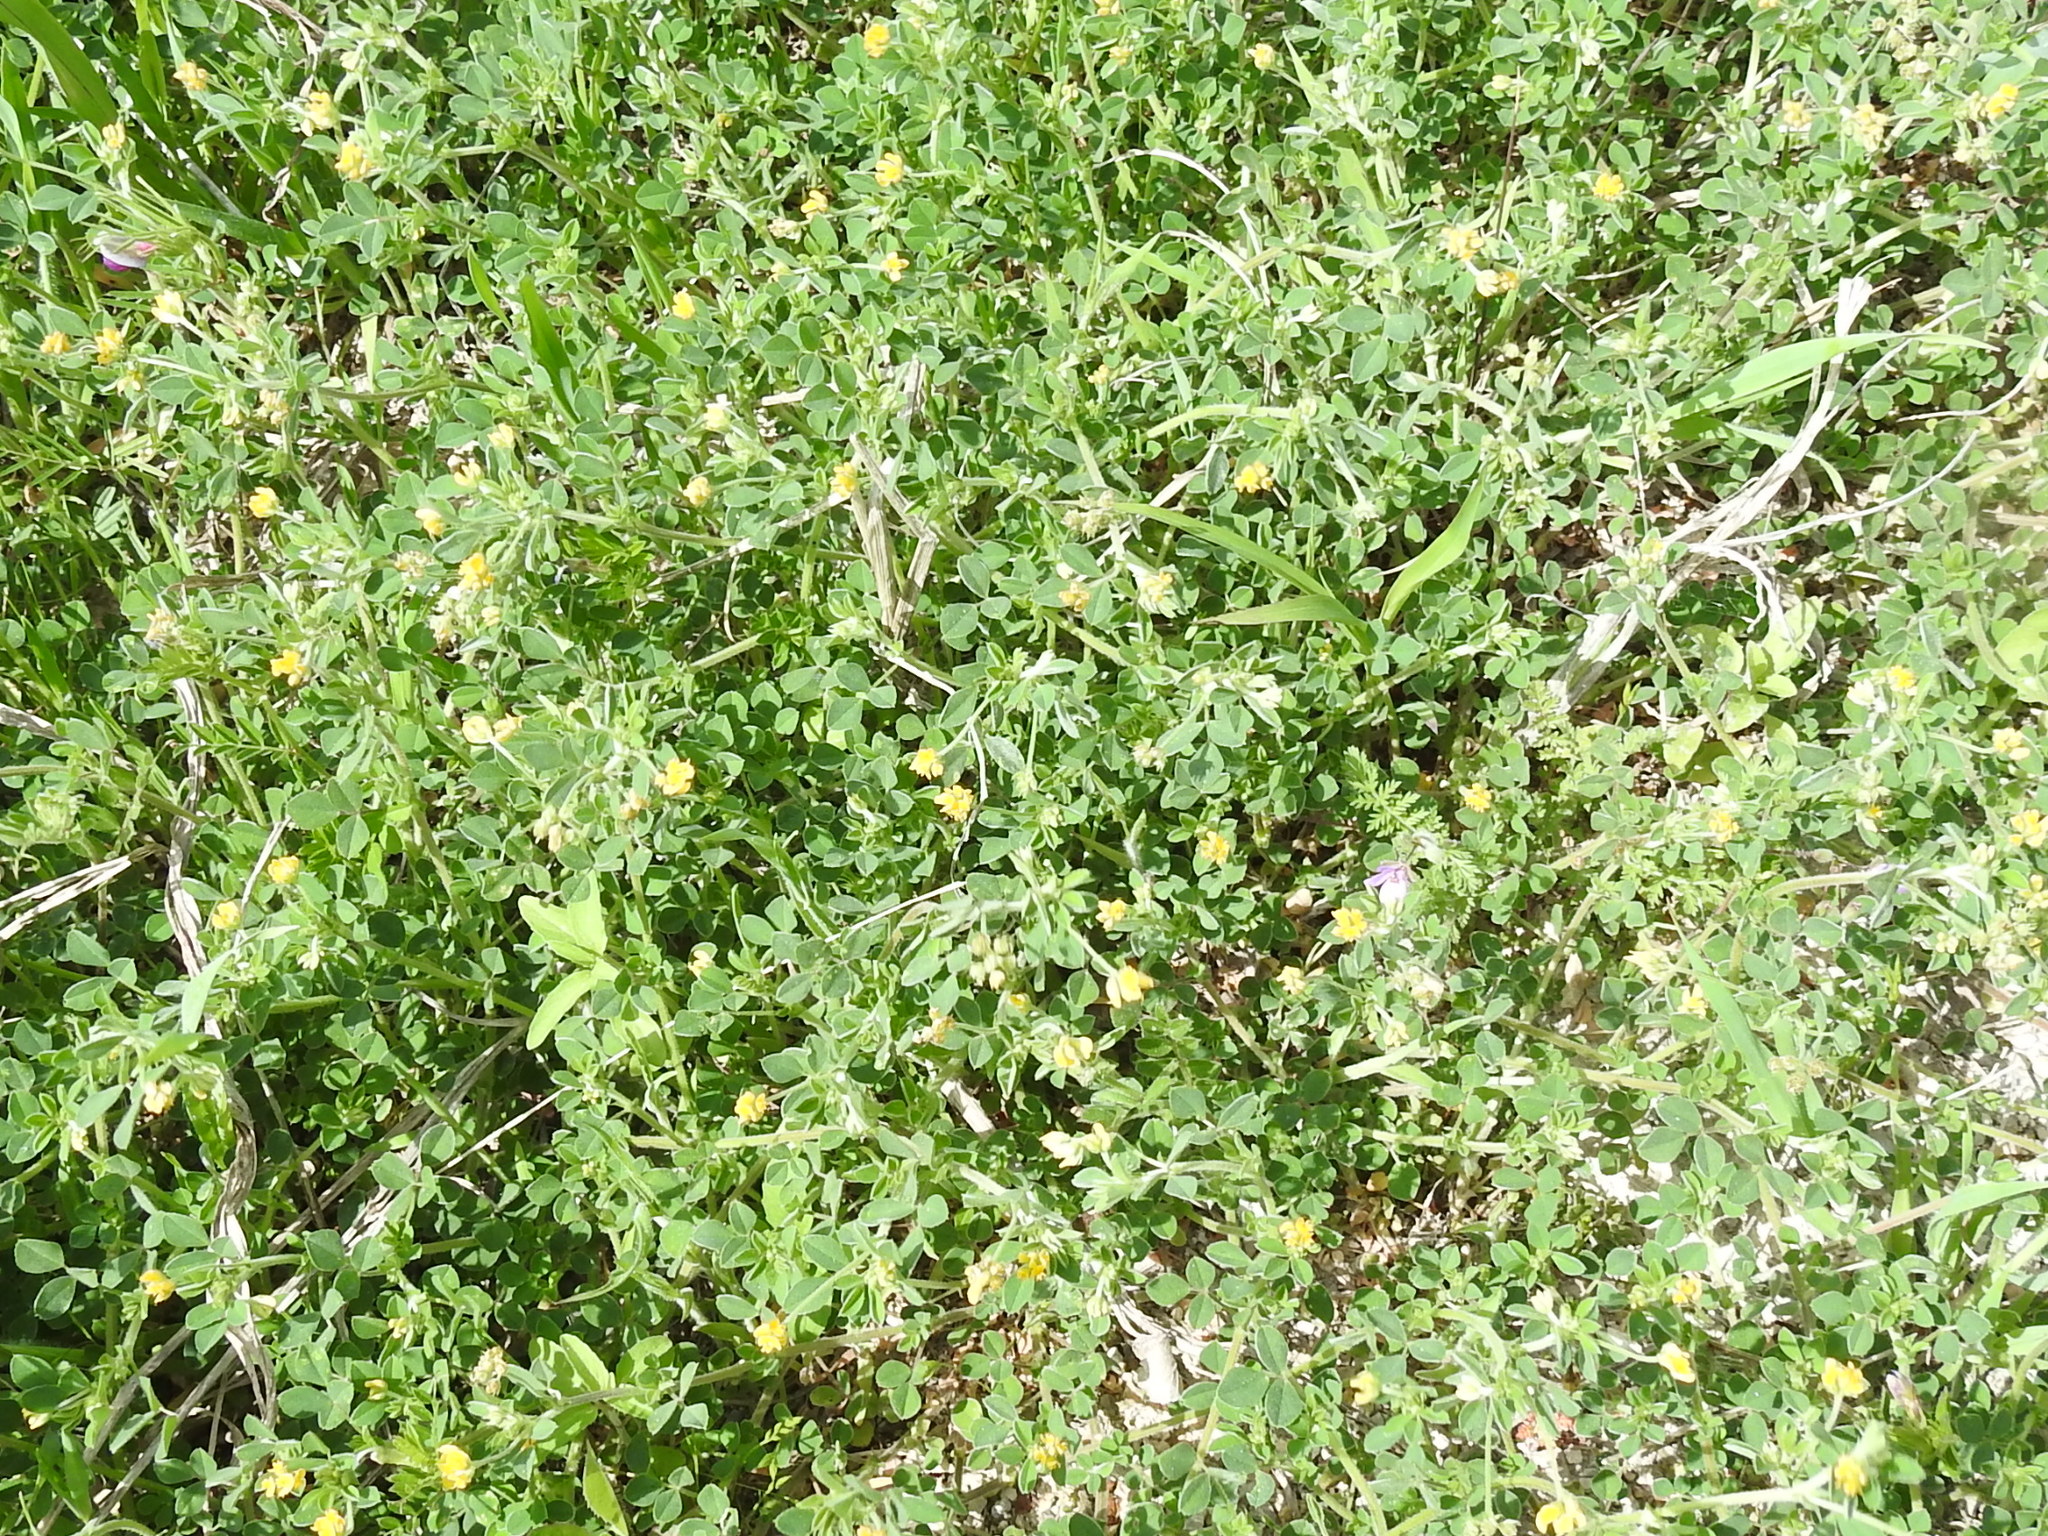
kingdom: Plantae
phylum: Tracheophyta
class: Magnoliopsida
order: Fabales
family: Fabaceae
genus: Medicago
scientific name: Medicago minima
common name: Little bur-clover
